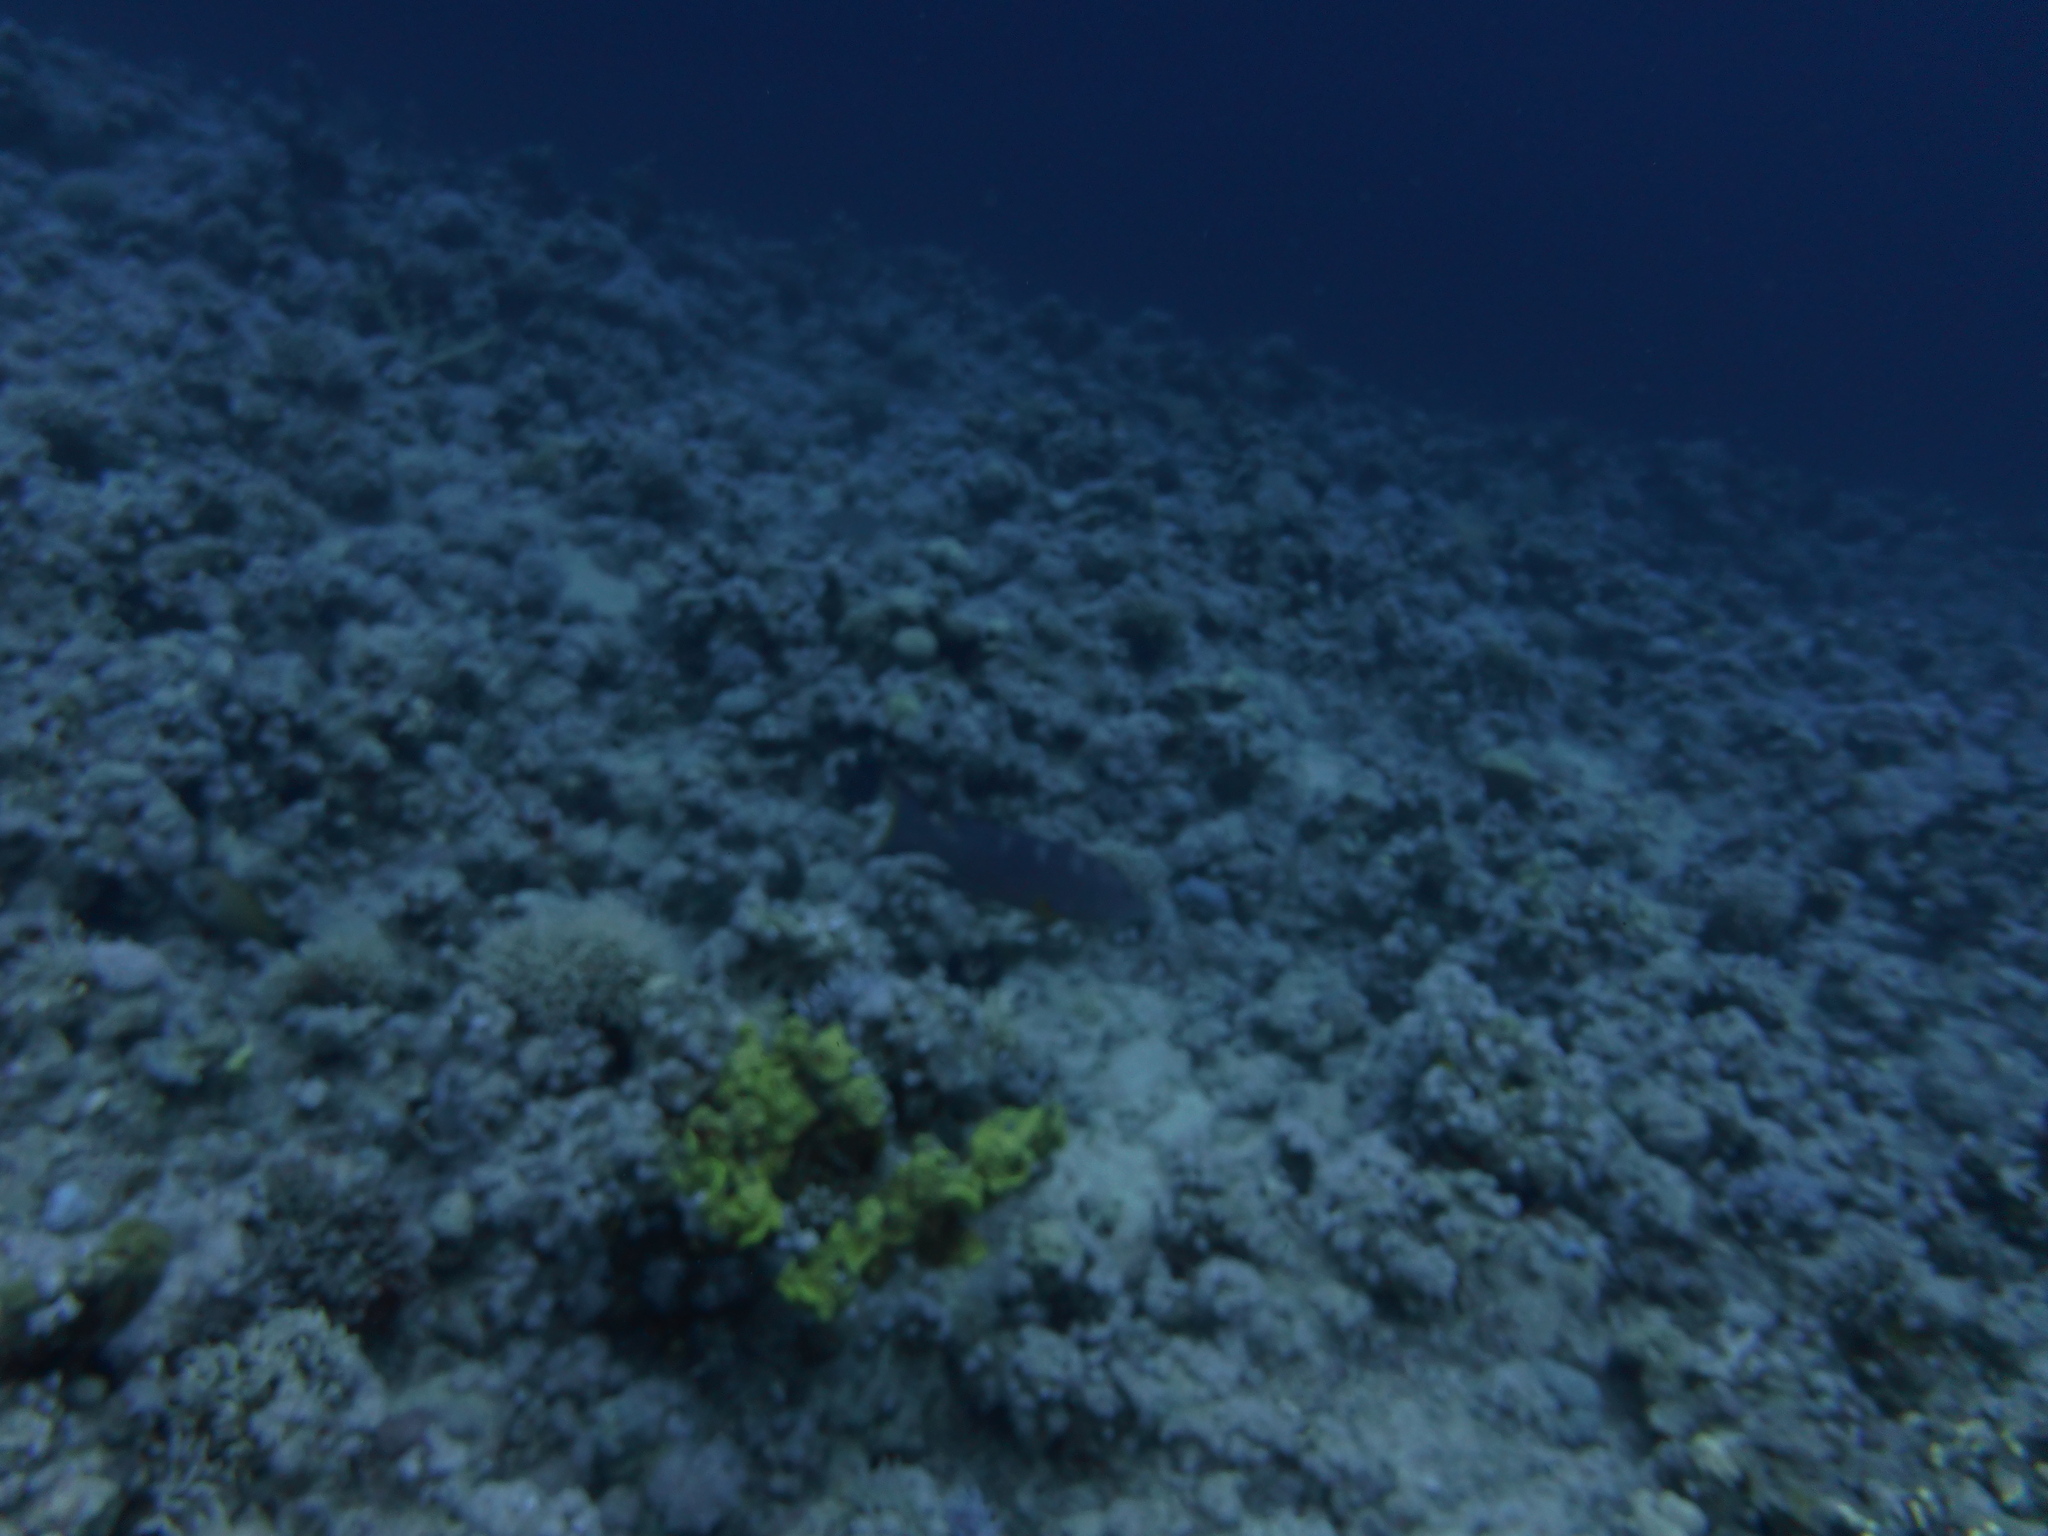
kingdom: Animalia
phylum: Chordata
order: Perciformes
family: Serranidae
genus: Variola
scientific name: Variola louti
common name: Yellow-edged lyretail
